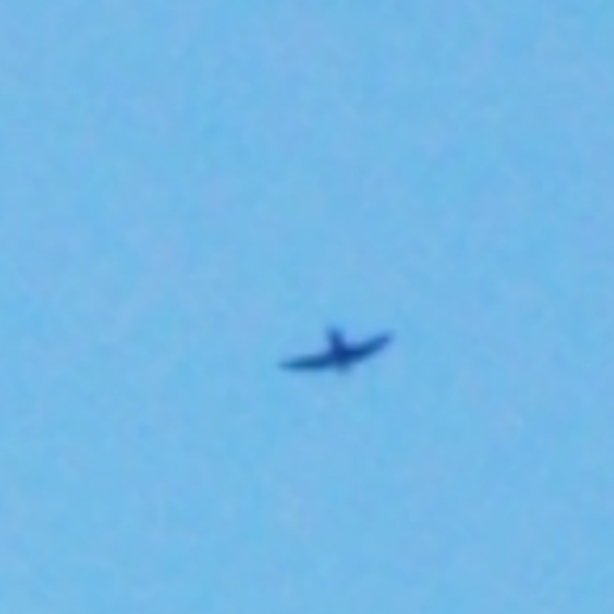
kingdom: Animalia
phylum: Chordata
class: Aves
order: Apodiformes
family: Apodidae
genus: Chaetura
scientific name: Chaetura pelagica
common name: Chimney swift
